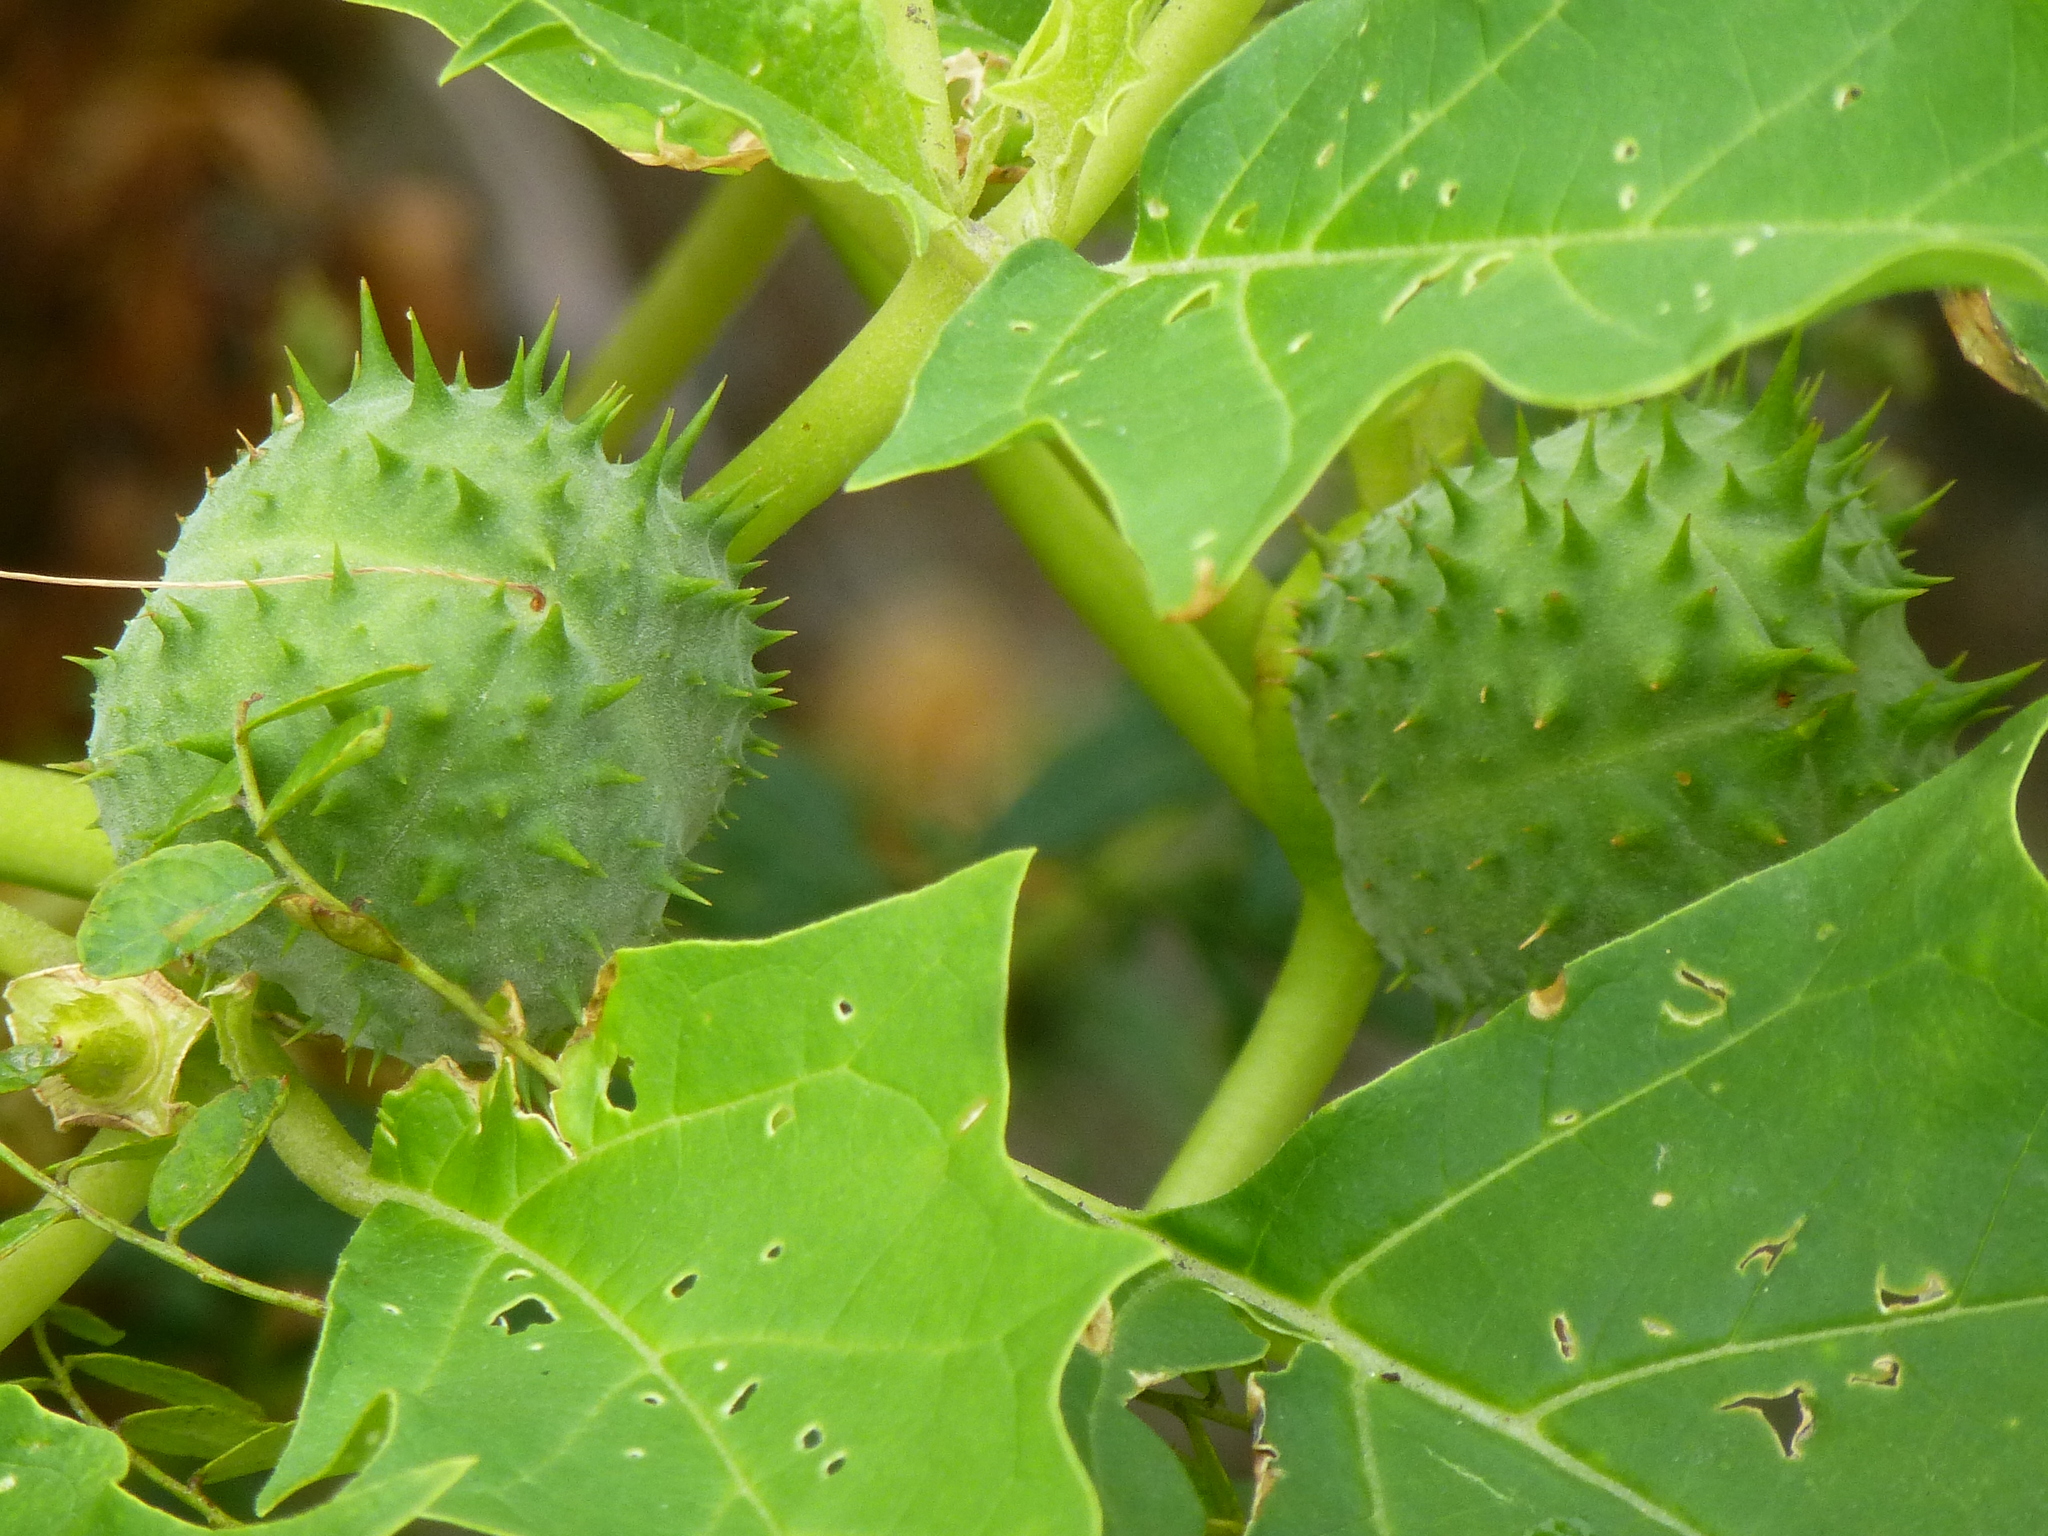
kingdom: Plantae
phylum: Tracheophyta
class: Magnoliopsida
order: Solanales
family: Solanaceae
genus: Datura
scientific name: Datura stramonium
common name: Thorn-apple
